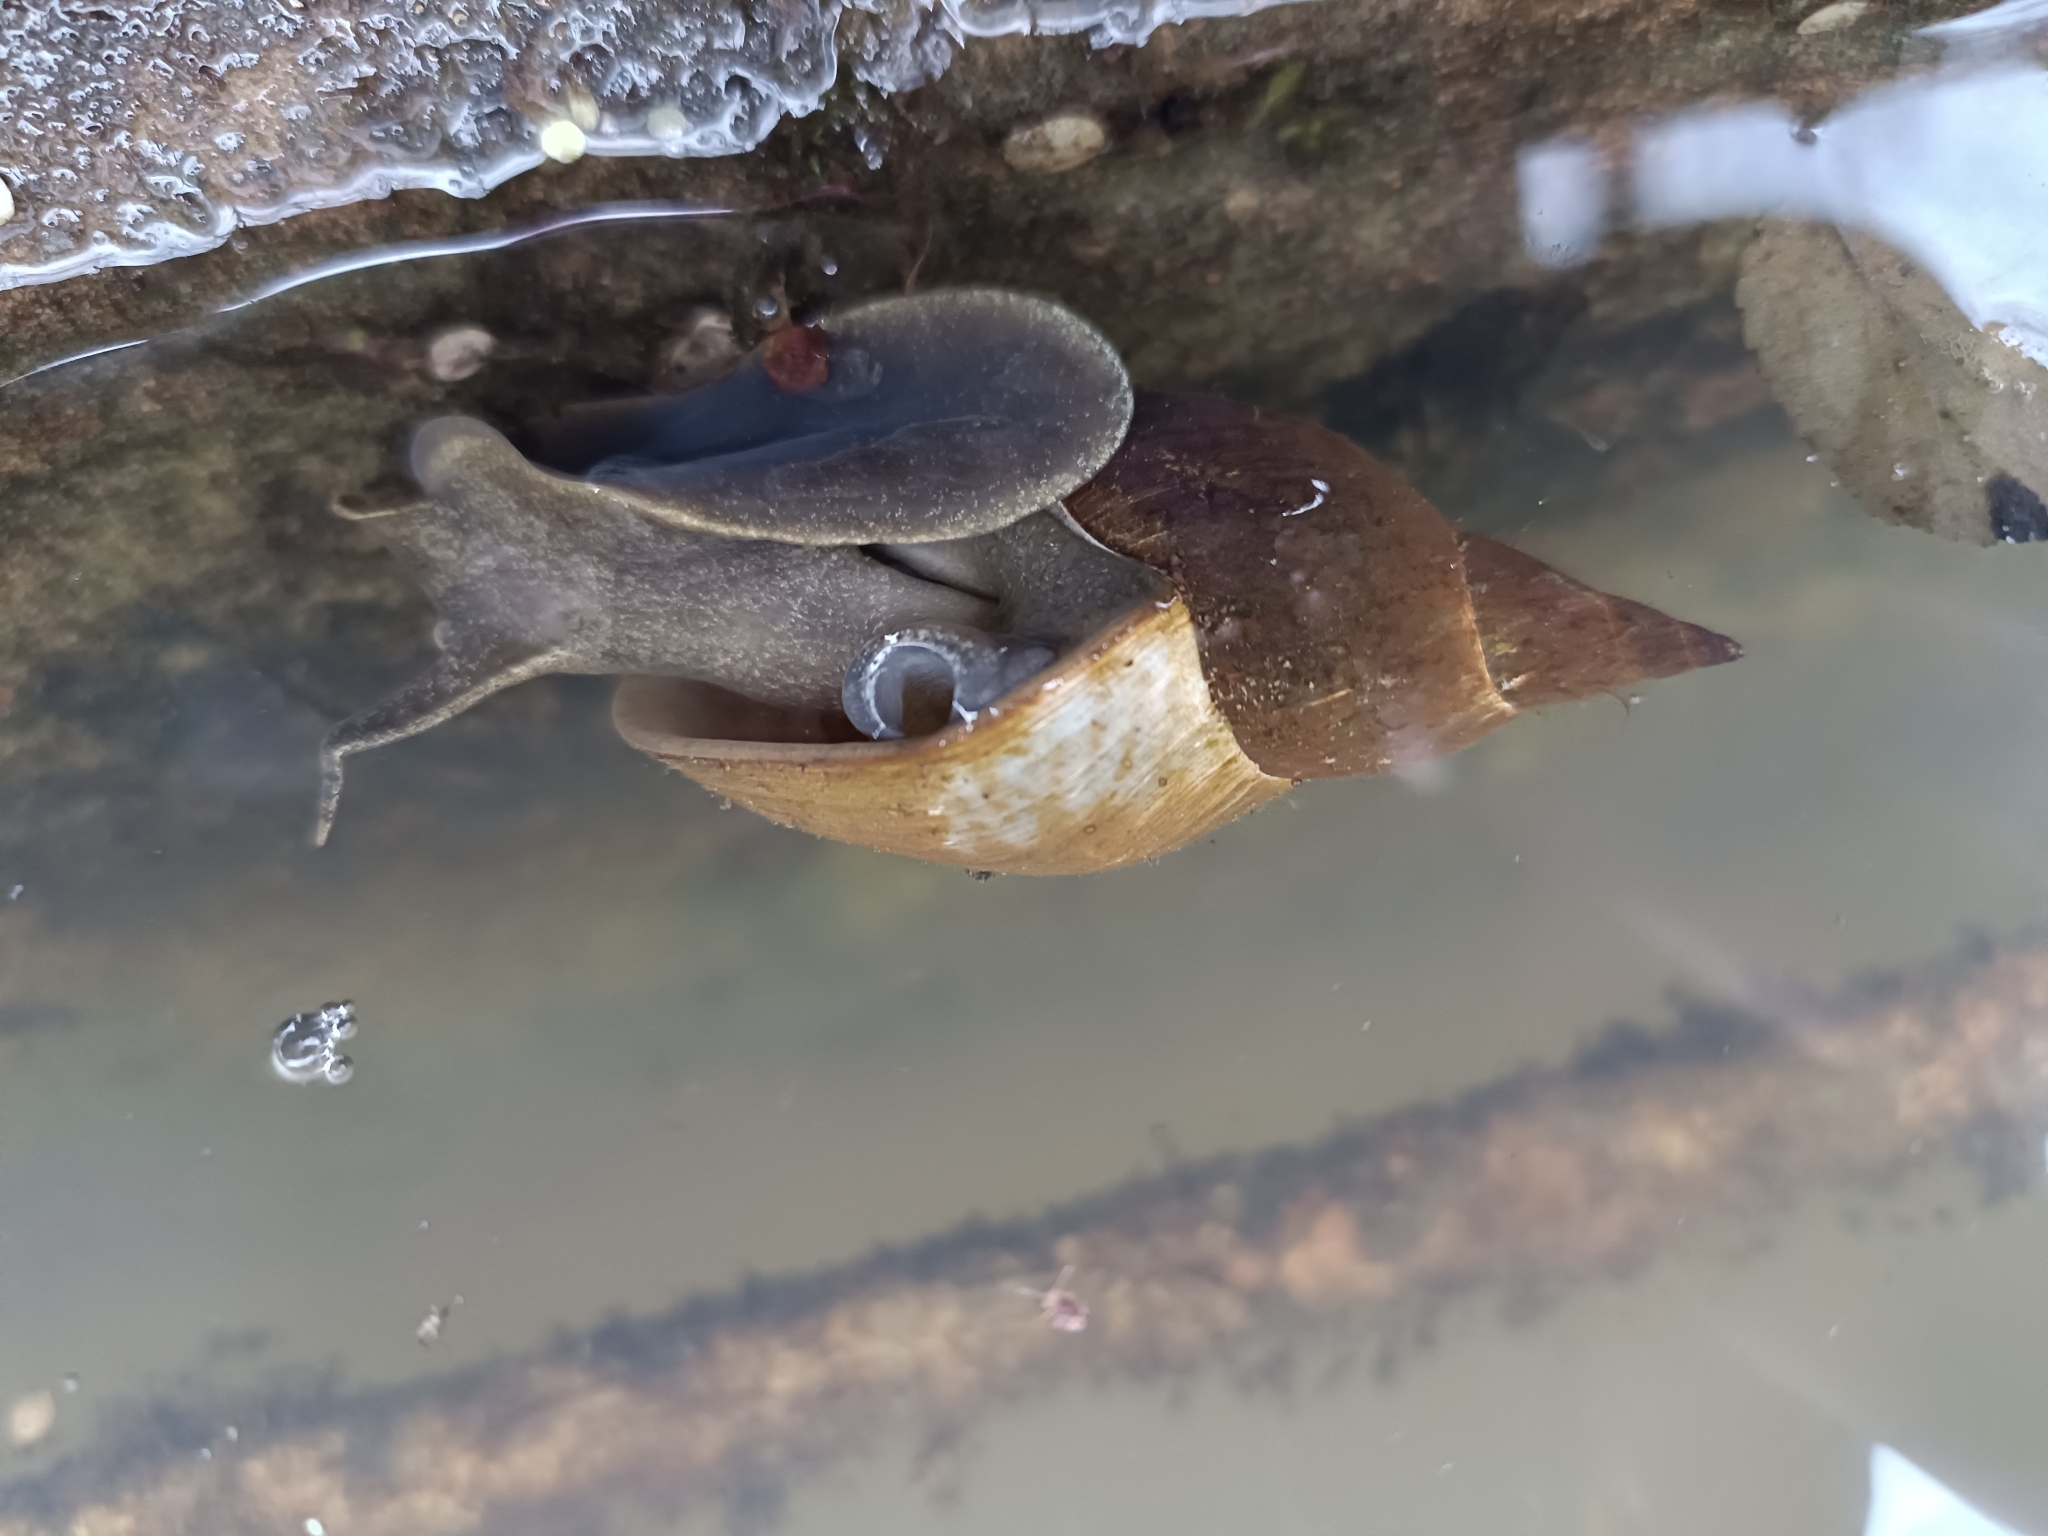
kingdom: Animalia
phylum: Mollusca
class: Gastropoda
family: Lymnaeidae
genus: Lymnaea
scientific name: Lymnaea stagnalis
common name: Great pond snail
